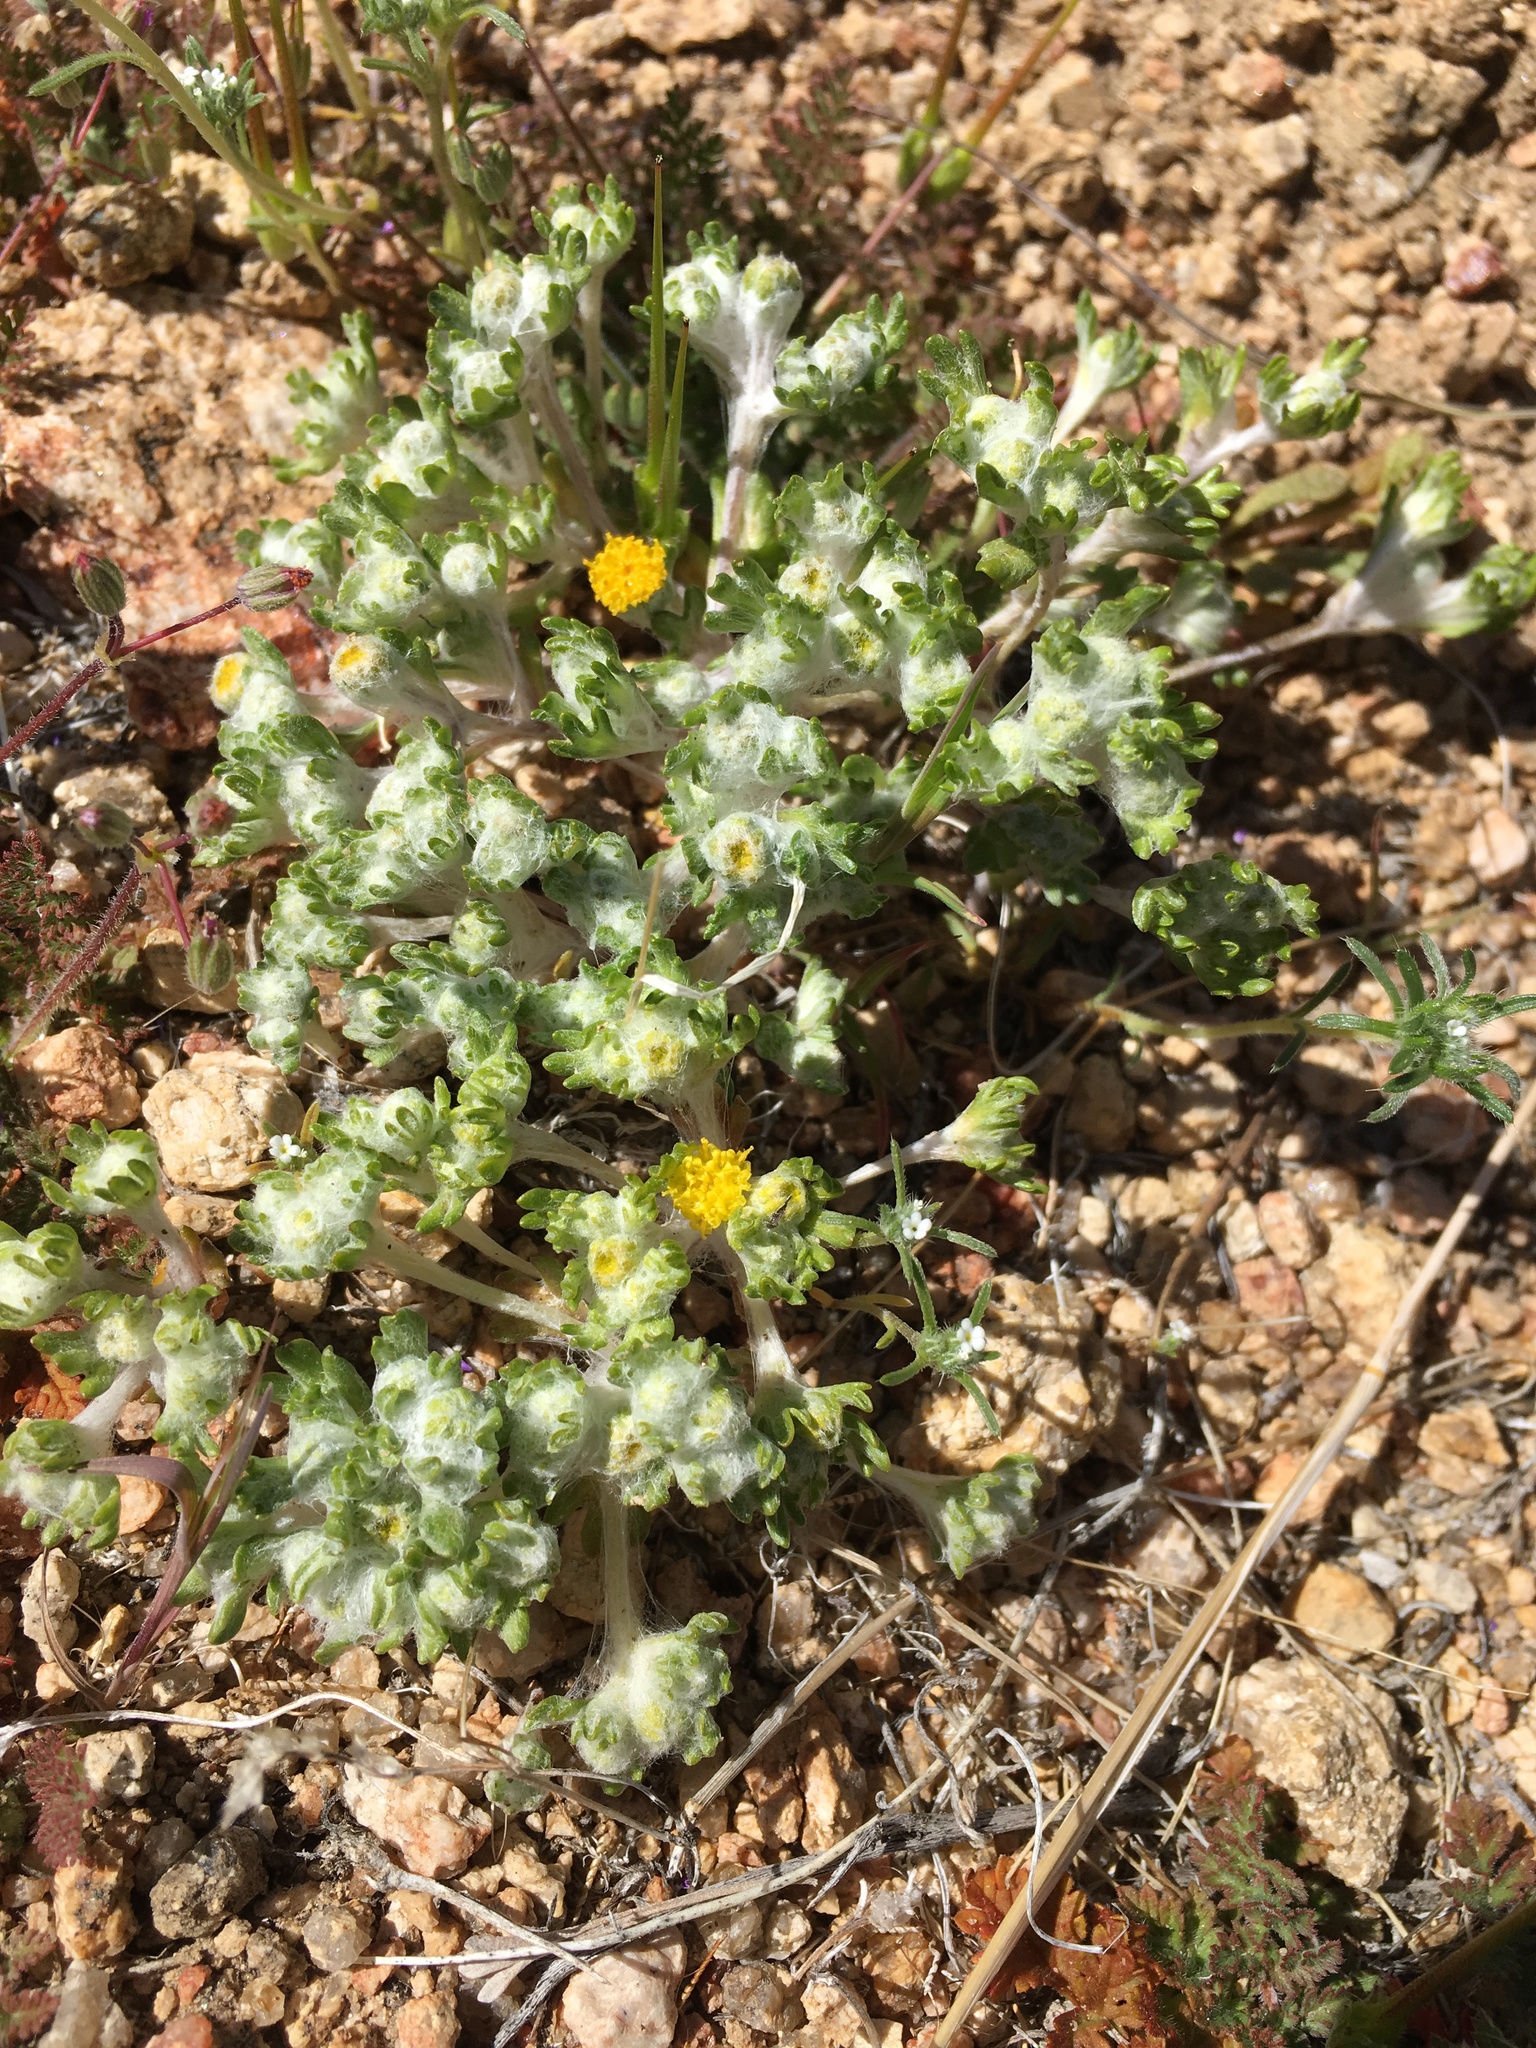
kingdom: Plantae
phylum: Tracheophyta
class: Magnoliopsida
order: Asterales
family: Asteraceae
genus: Eriophyllum
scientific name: Eriophyllum pringlei
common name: Pringle's woolly-sunflower
